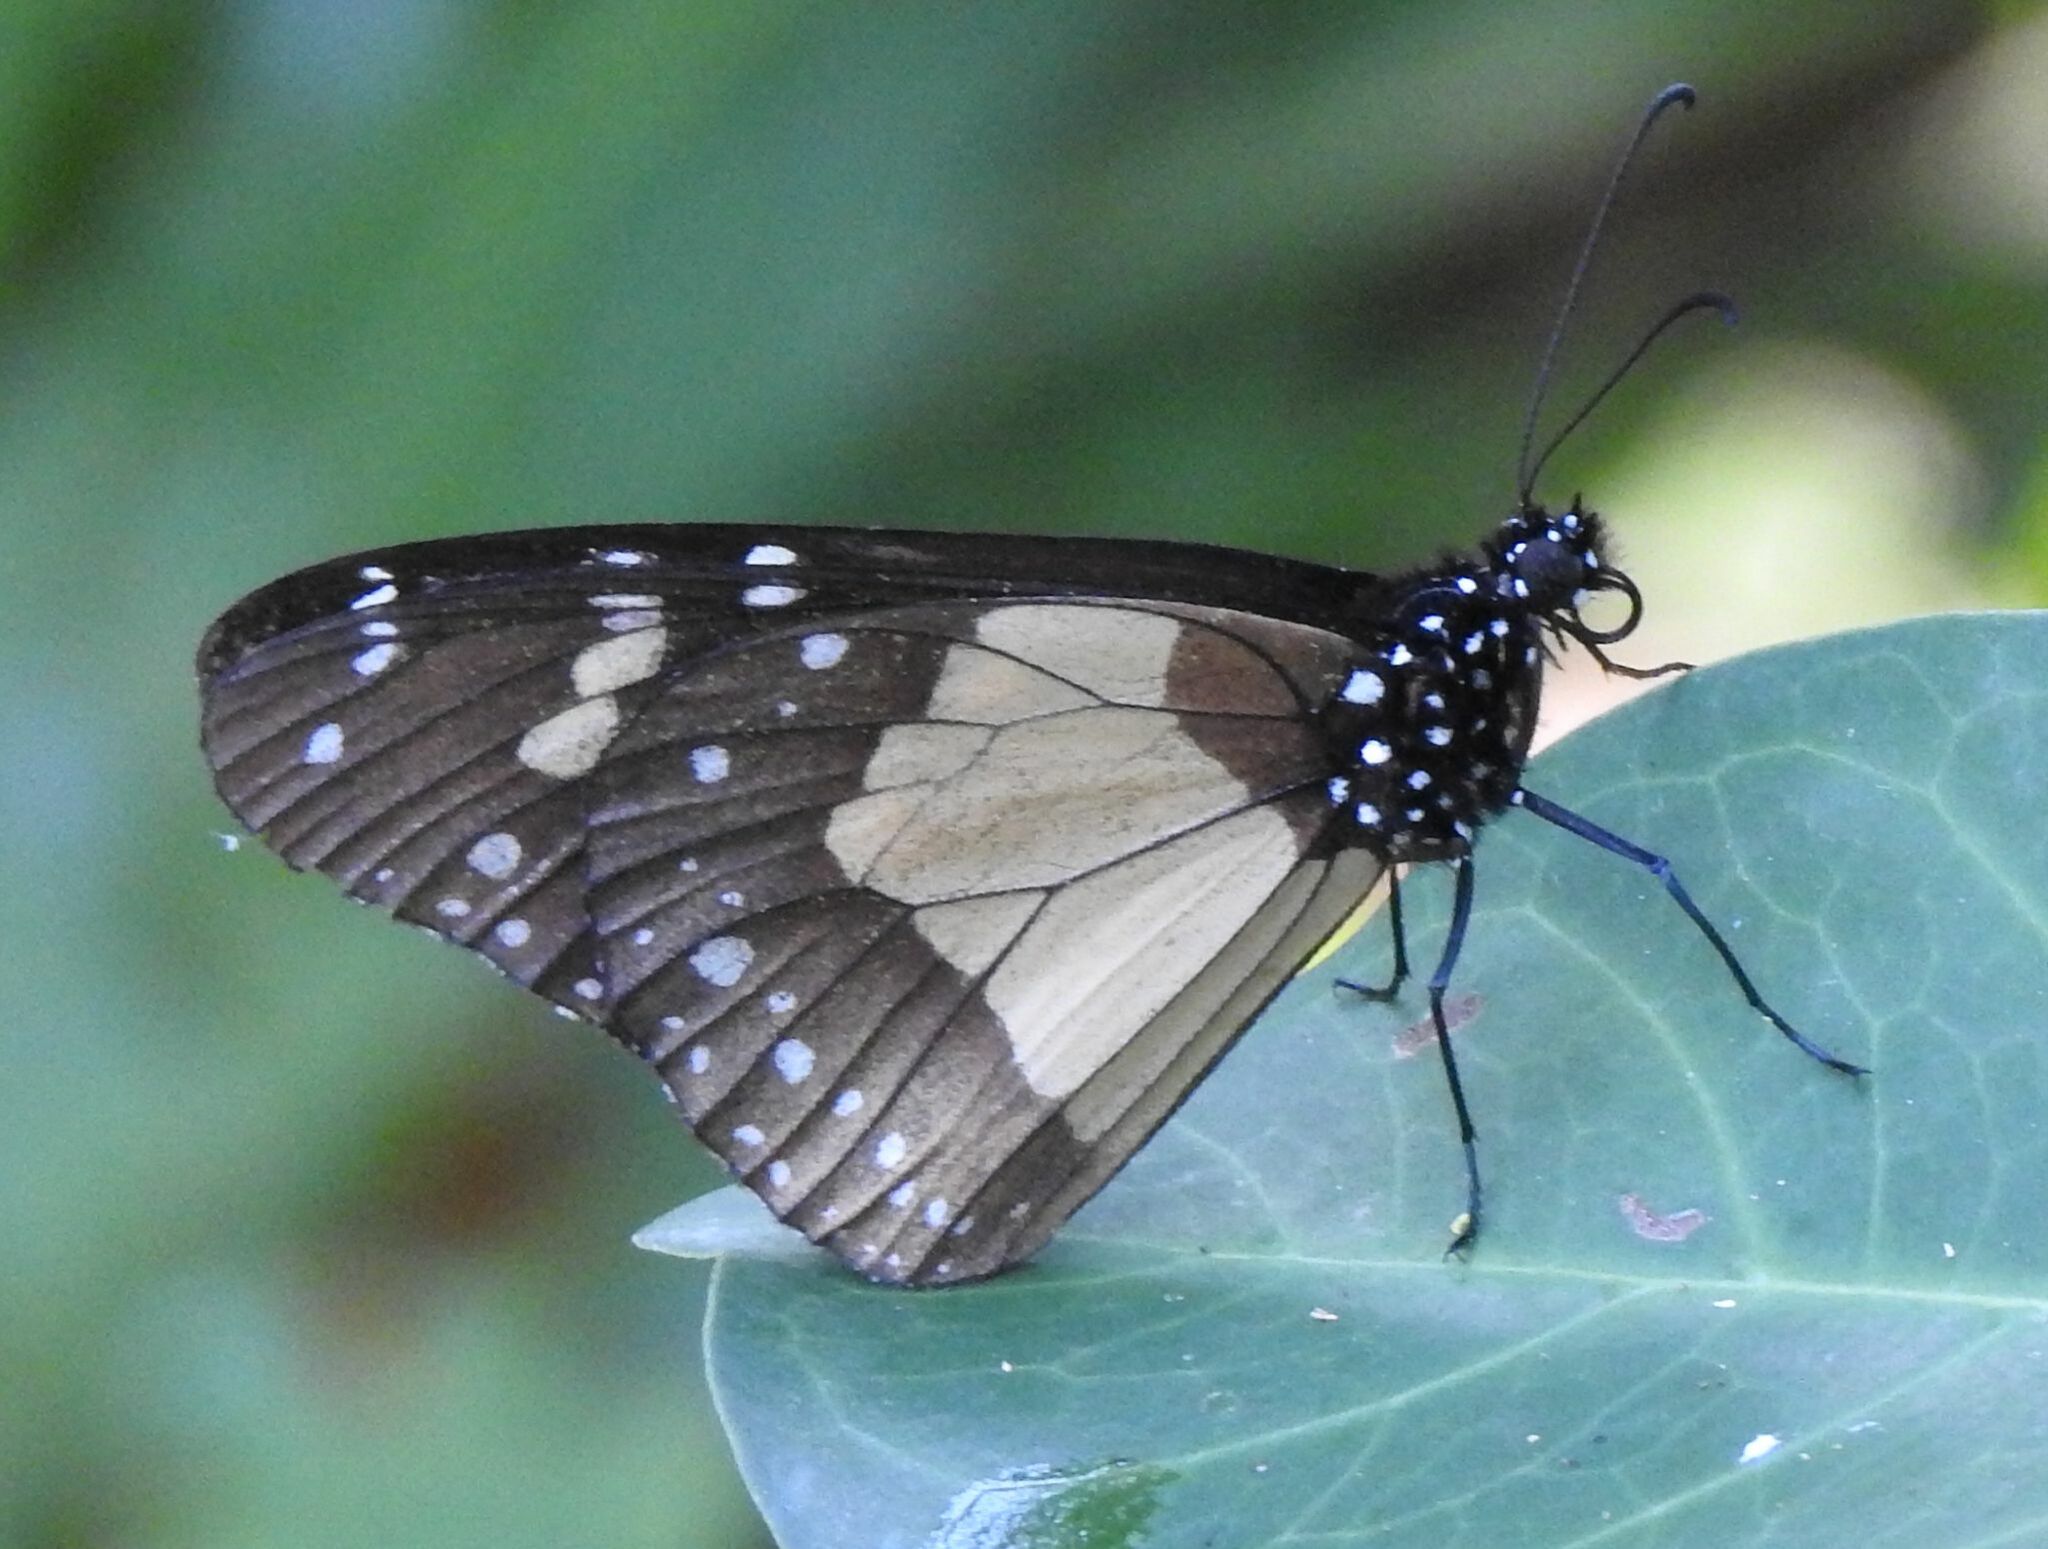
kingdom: Animalia
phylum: Arthropoda
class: Insecta
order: Lepidoptera
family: Nymphalidae
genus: Amauris
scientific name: Amauris echeria
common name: Chief
